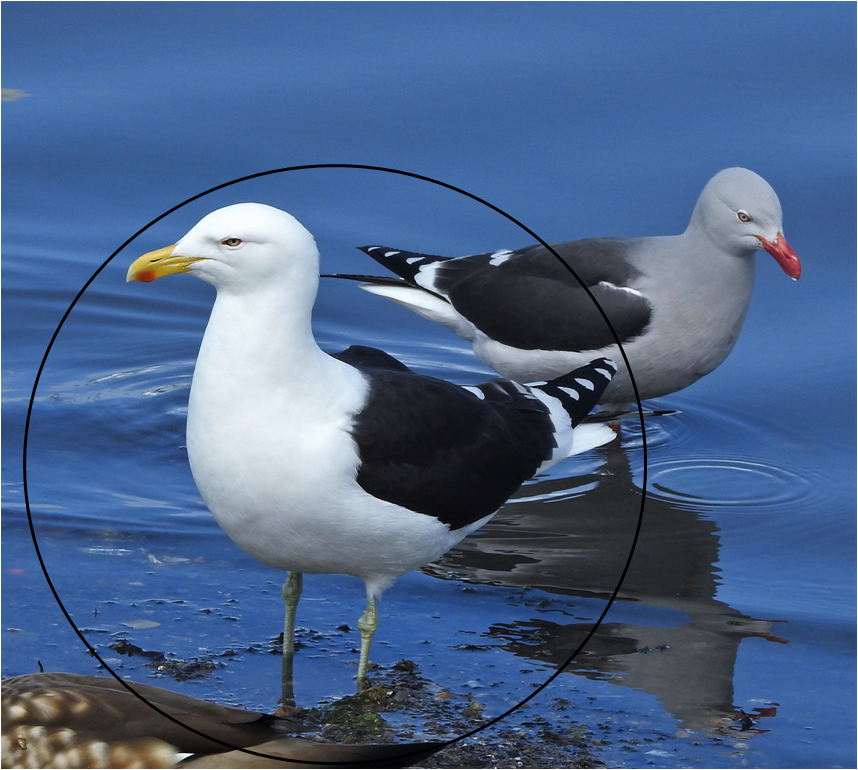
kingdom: Animalia
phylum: Chordata
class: Aves
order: Charadriiformes
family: Laridae
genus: Larus
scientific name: Larus dominicanus
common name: Kelp gull
